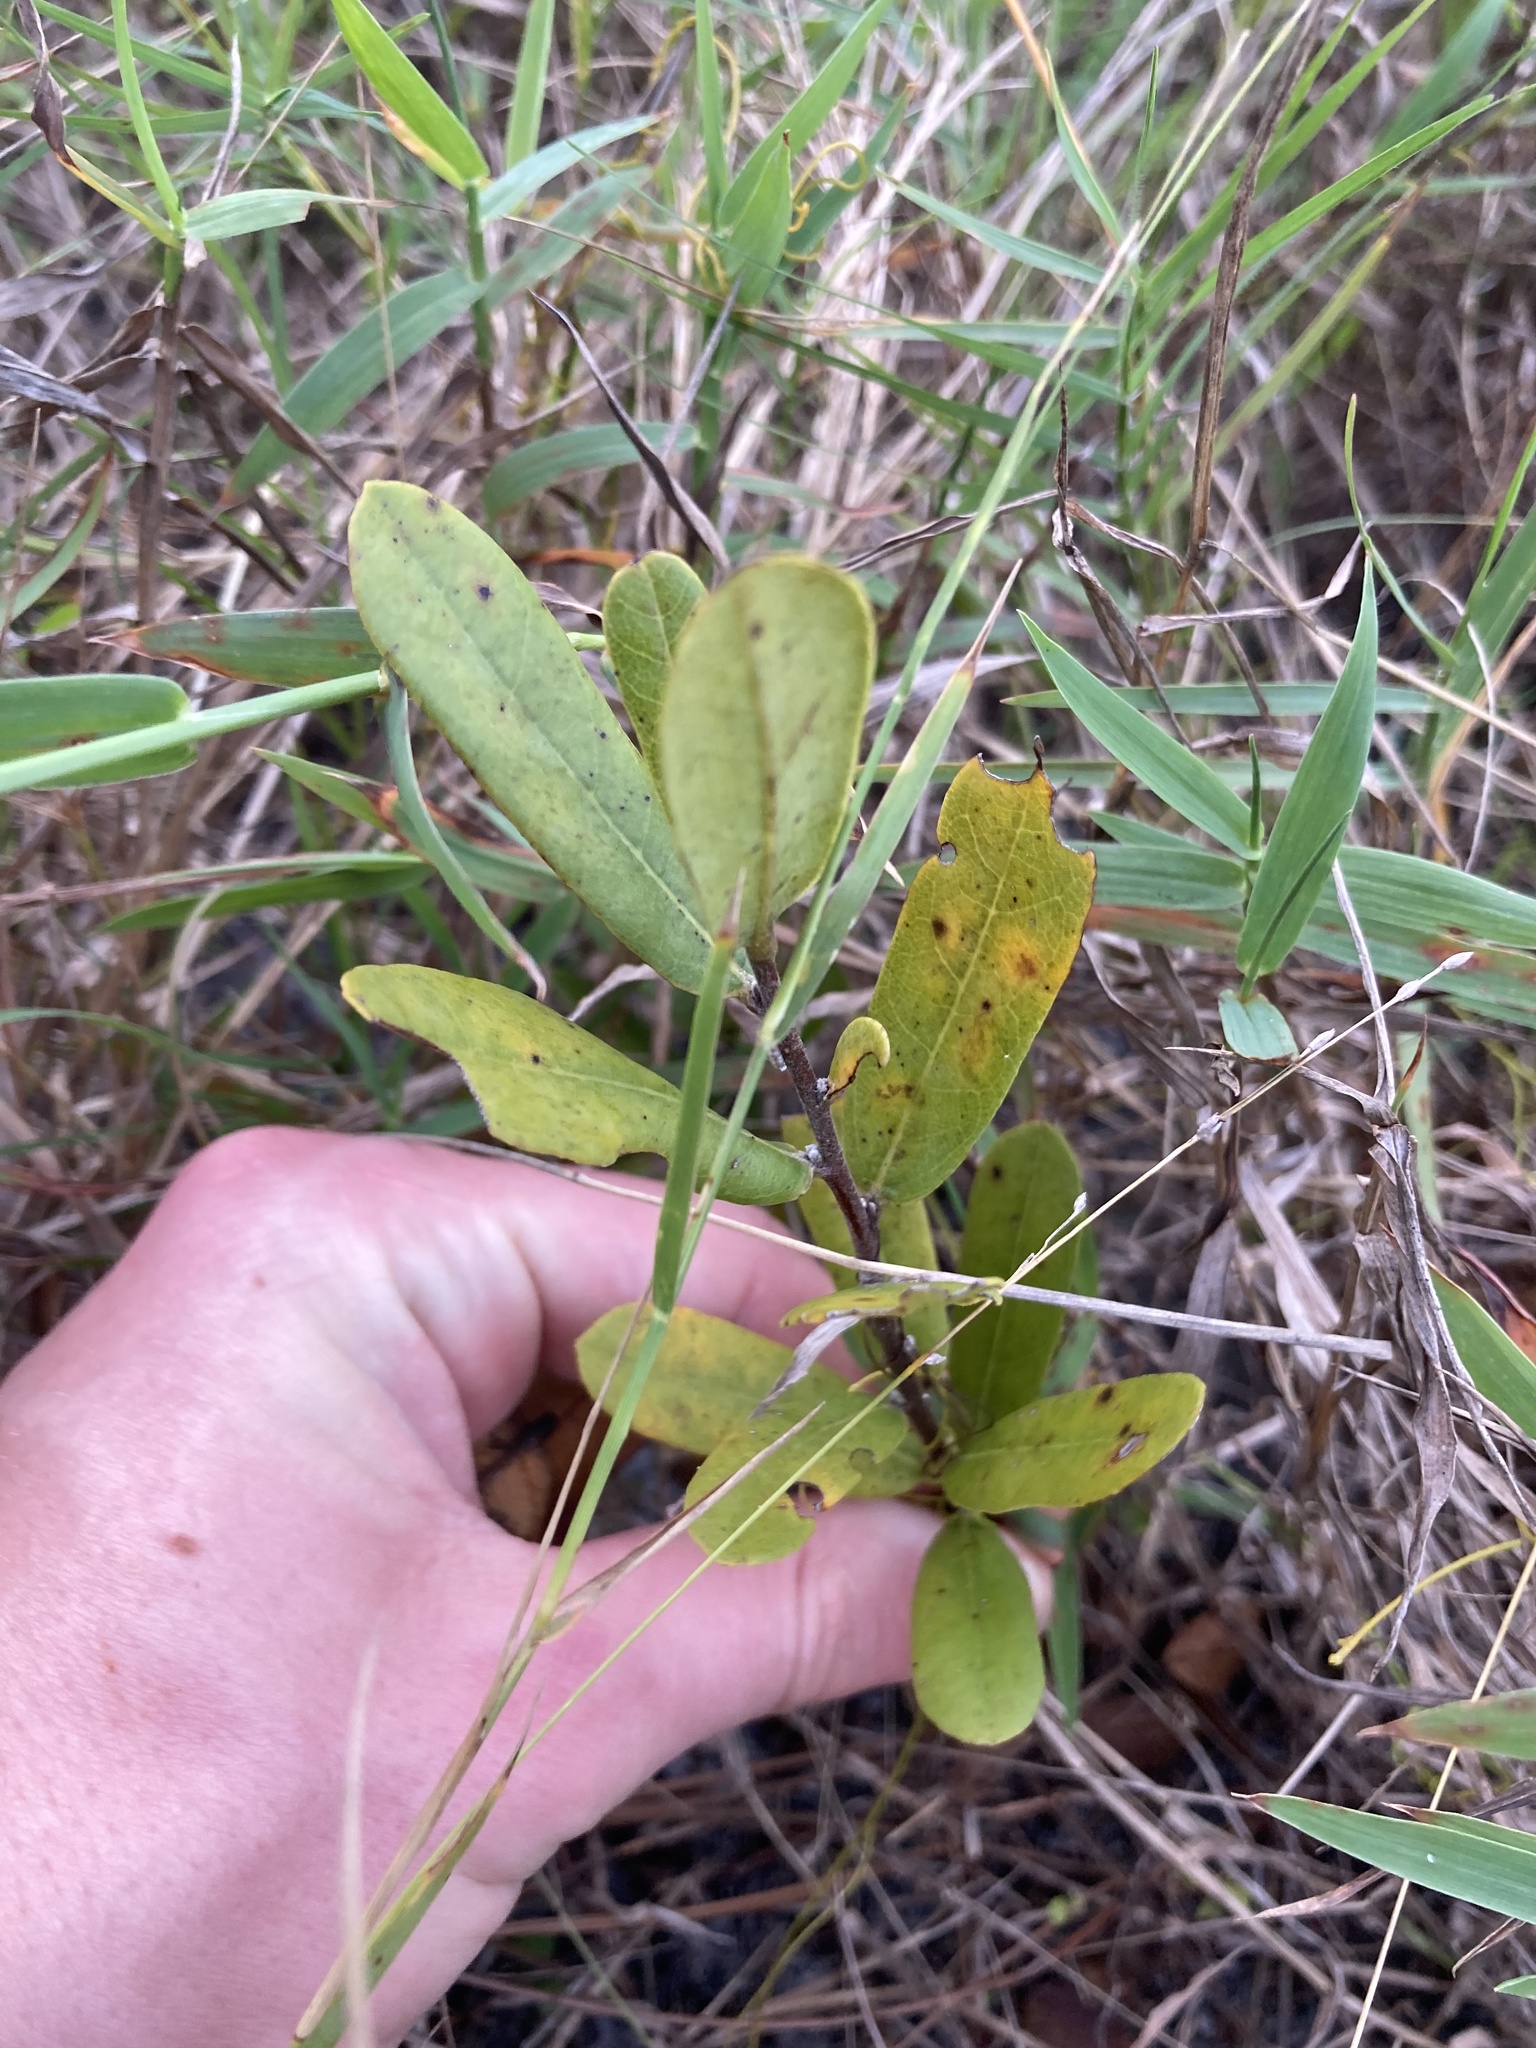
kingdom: Plantae
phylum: Tracheophyta
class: Magnoliopsida
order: Magnoliales
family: Annonaceae
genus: Asimina
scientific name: Asimina reticulata
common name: Flag pawpaw
